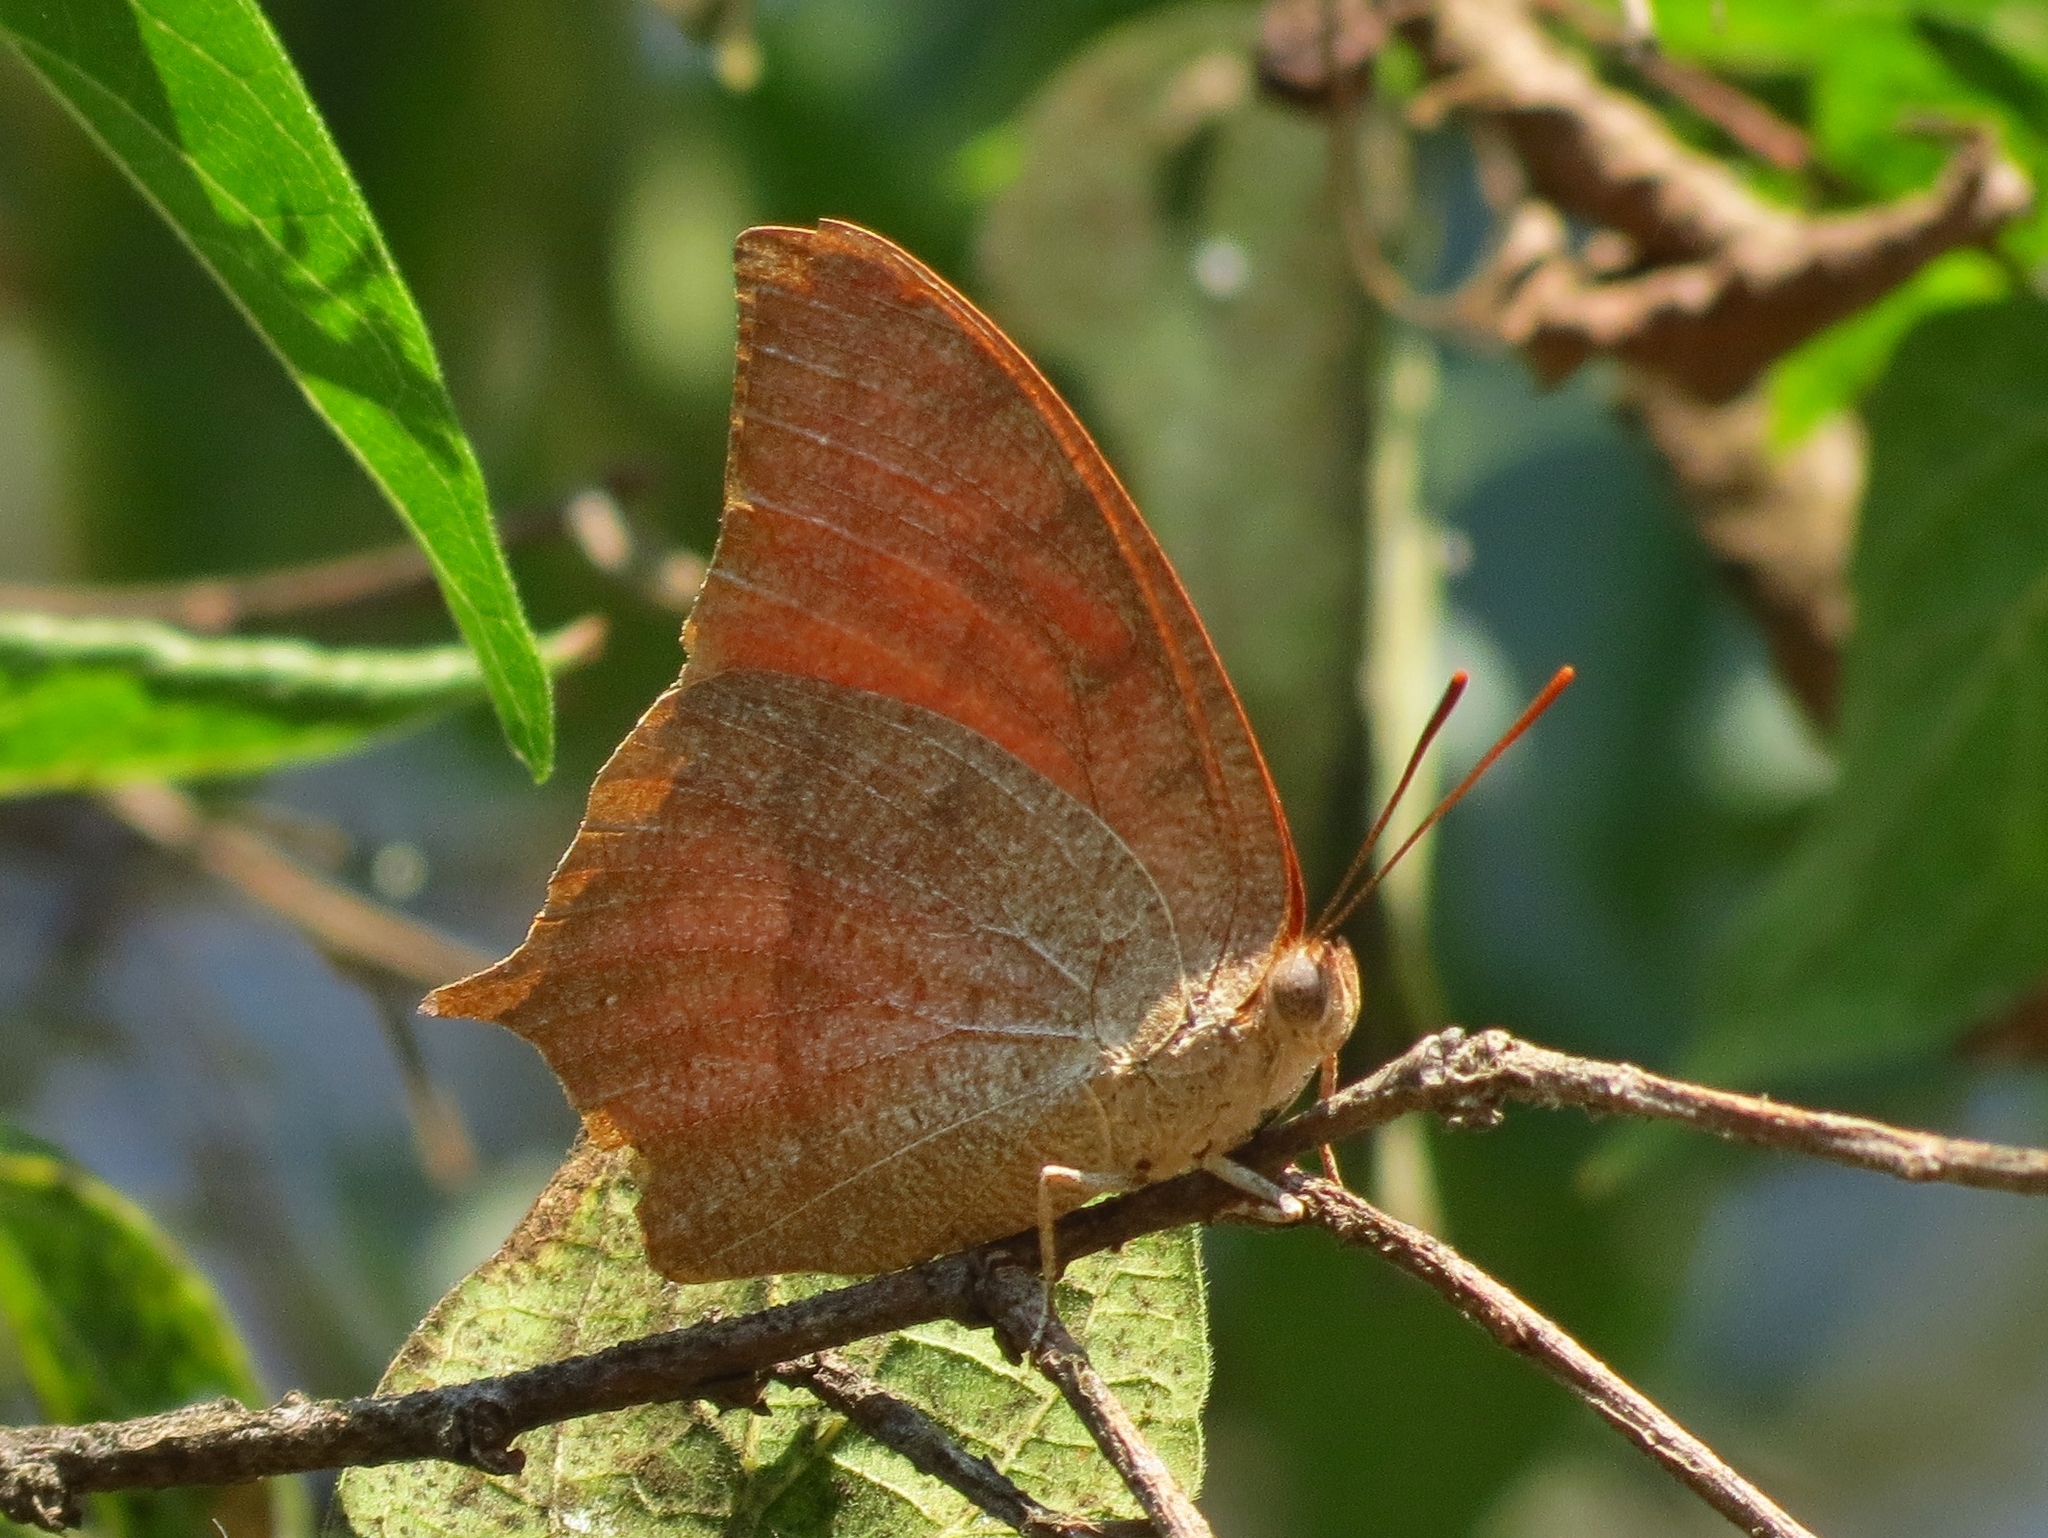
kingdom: Animalia
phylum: Arthropoda
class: Insecta
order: Lepidoptera
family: Nymphalidae
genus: Anaea
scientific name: Anaea andria
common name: Goatweed leafwing
